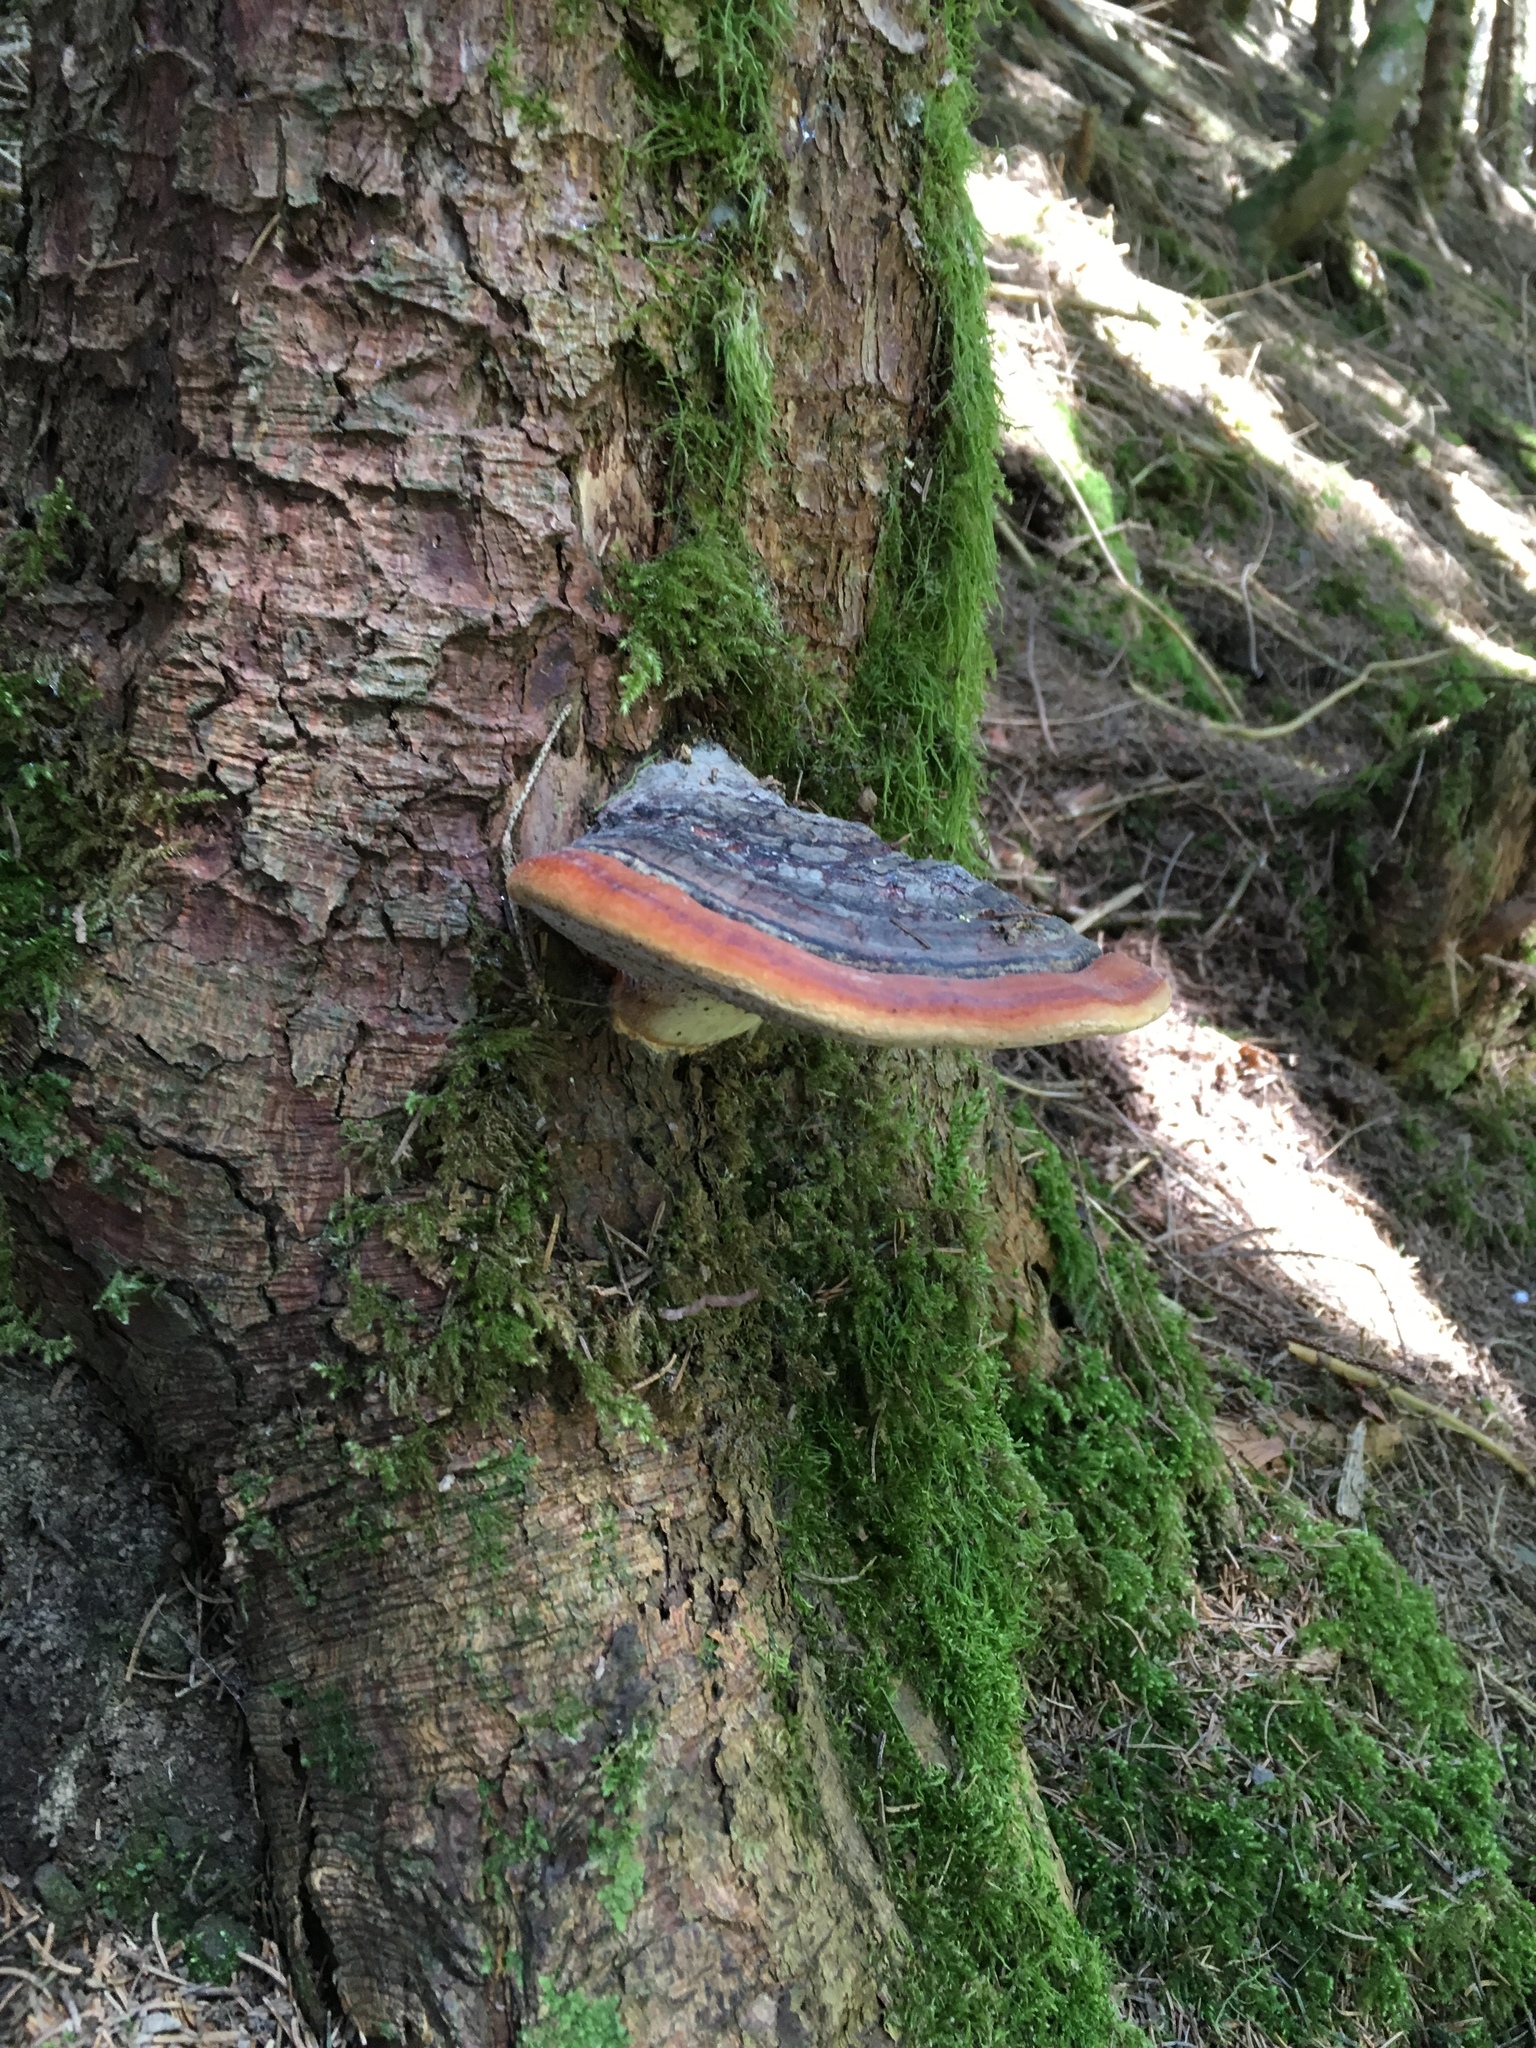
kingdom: Fungi
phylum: Basidiomycota
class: Agaricomycetes
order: Polyporales
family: Fomitopsidaceae
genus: Fomitopsis
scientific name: Fomitopsis pinicola
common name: Red-belted bracket
